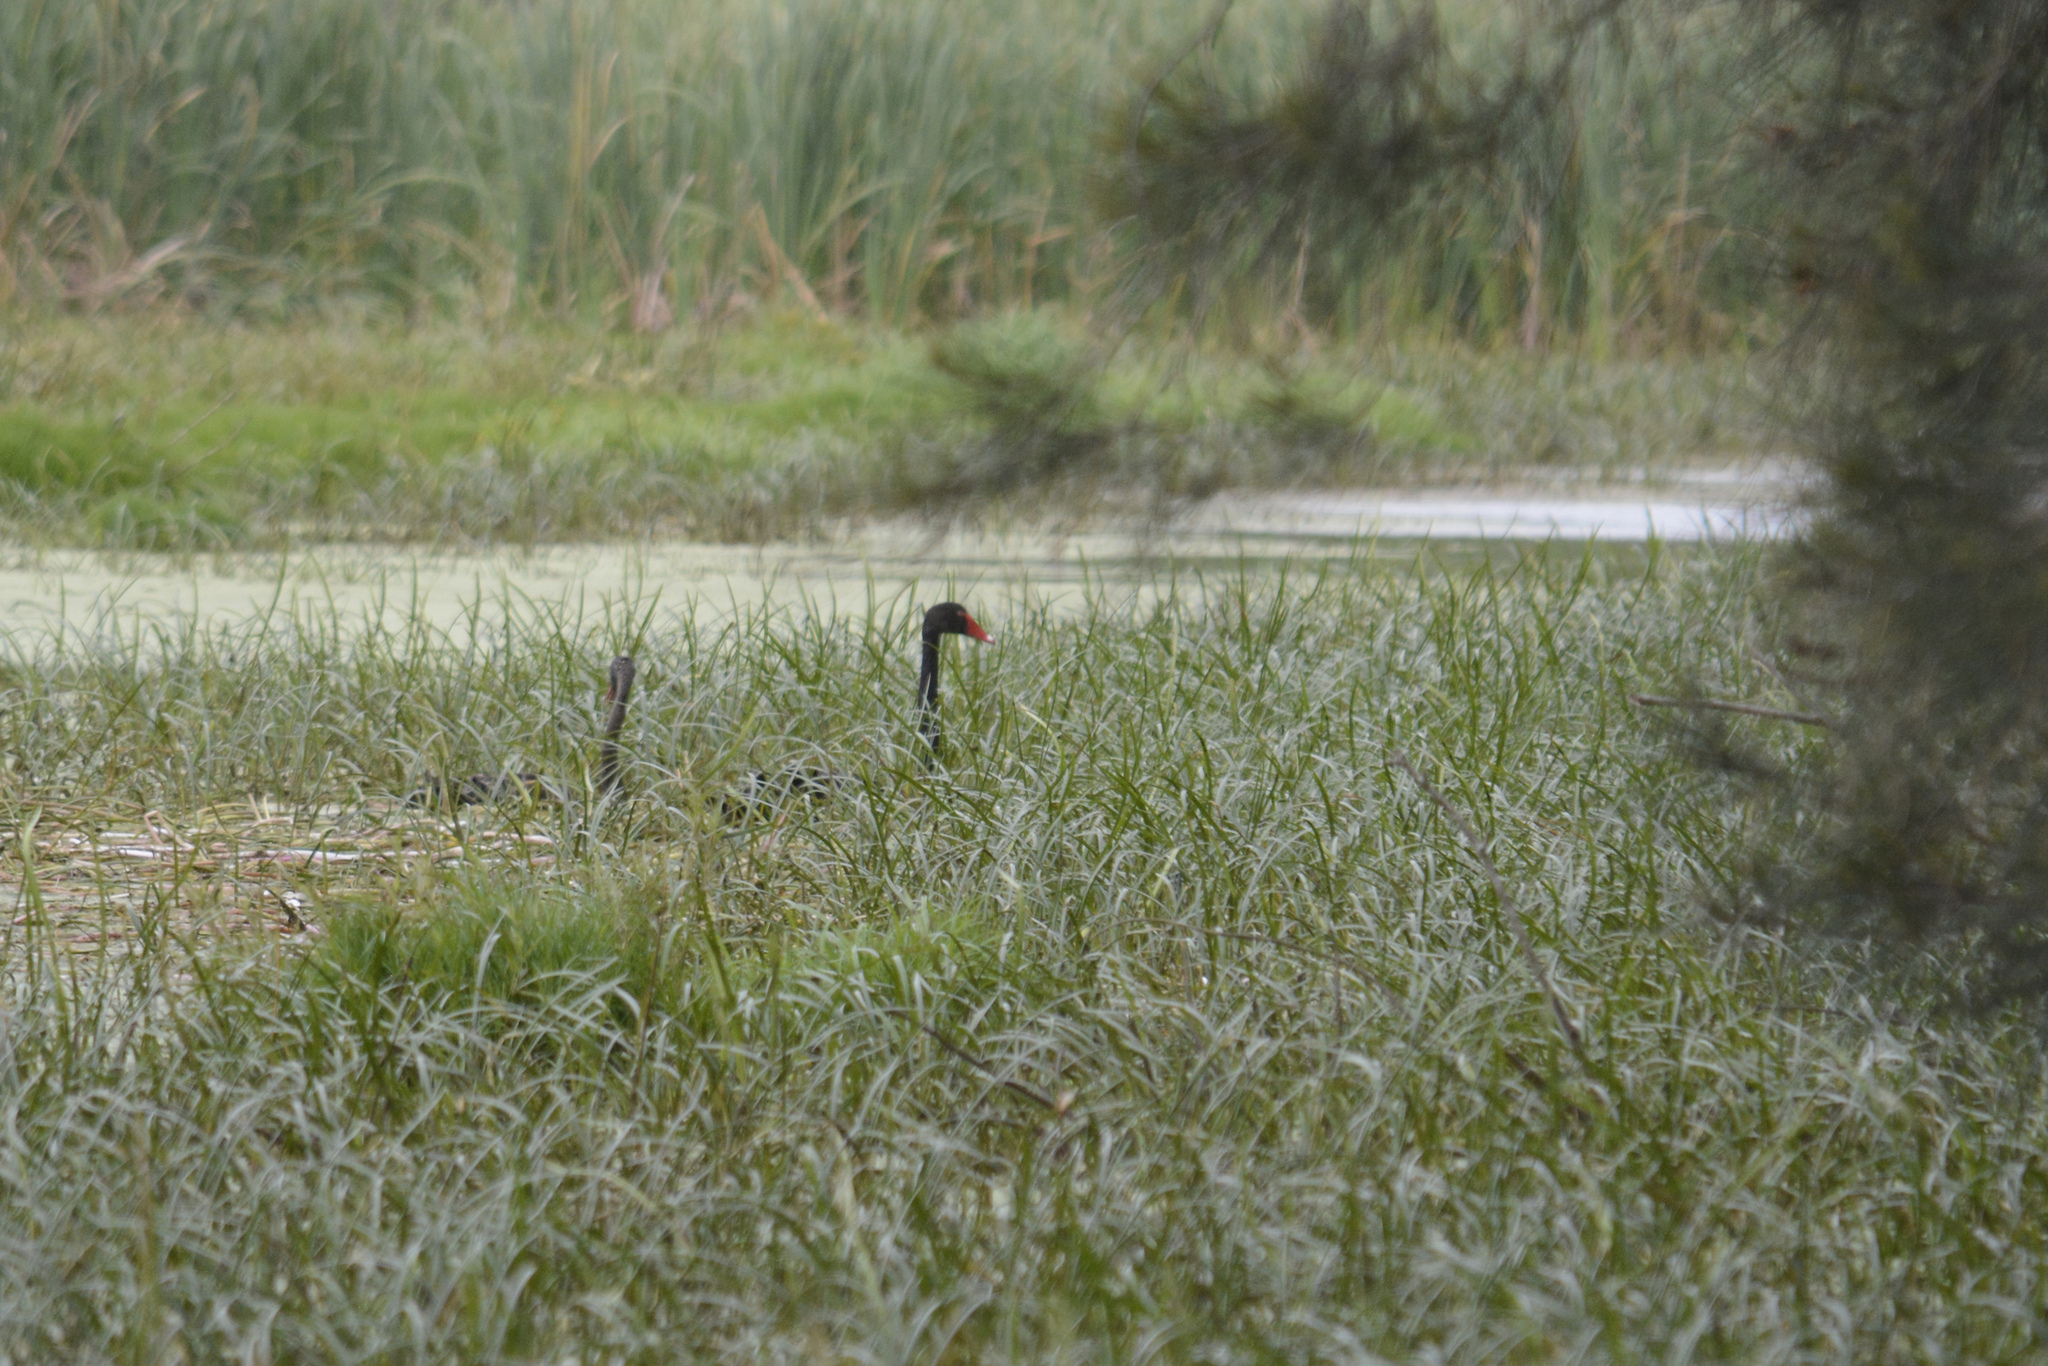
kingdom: Animalia
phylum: Chordata
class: Aves
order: Anseriformes
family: Anatidae
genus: Cygnus
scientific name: Cygnus atratus
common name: Black swan
